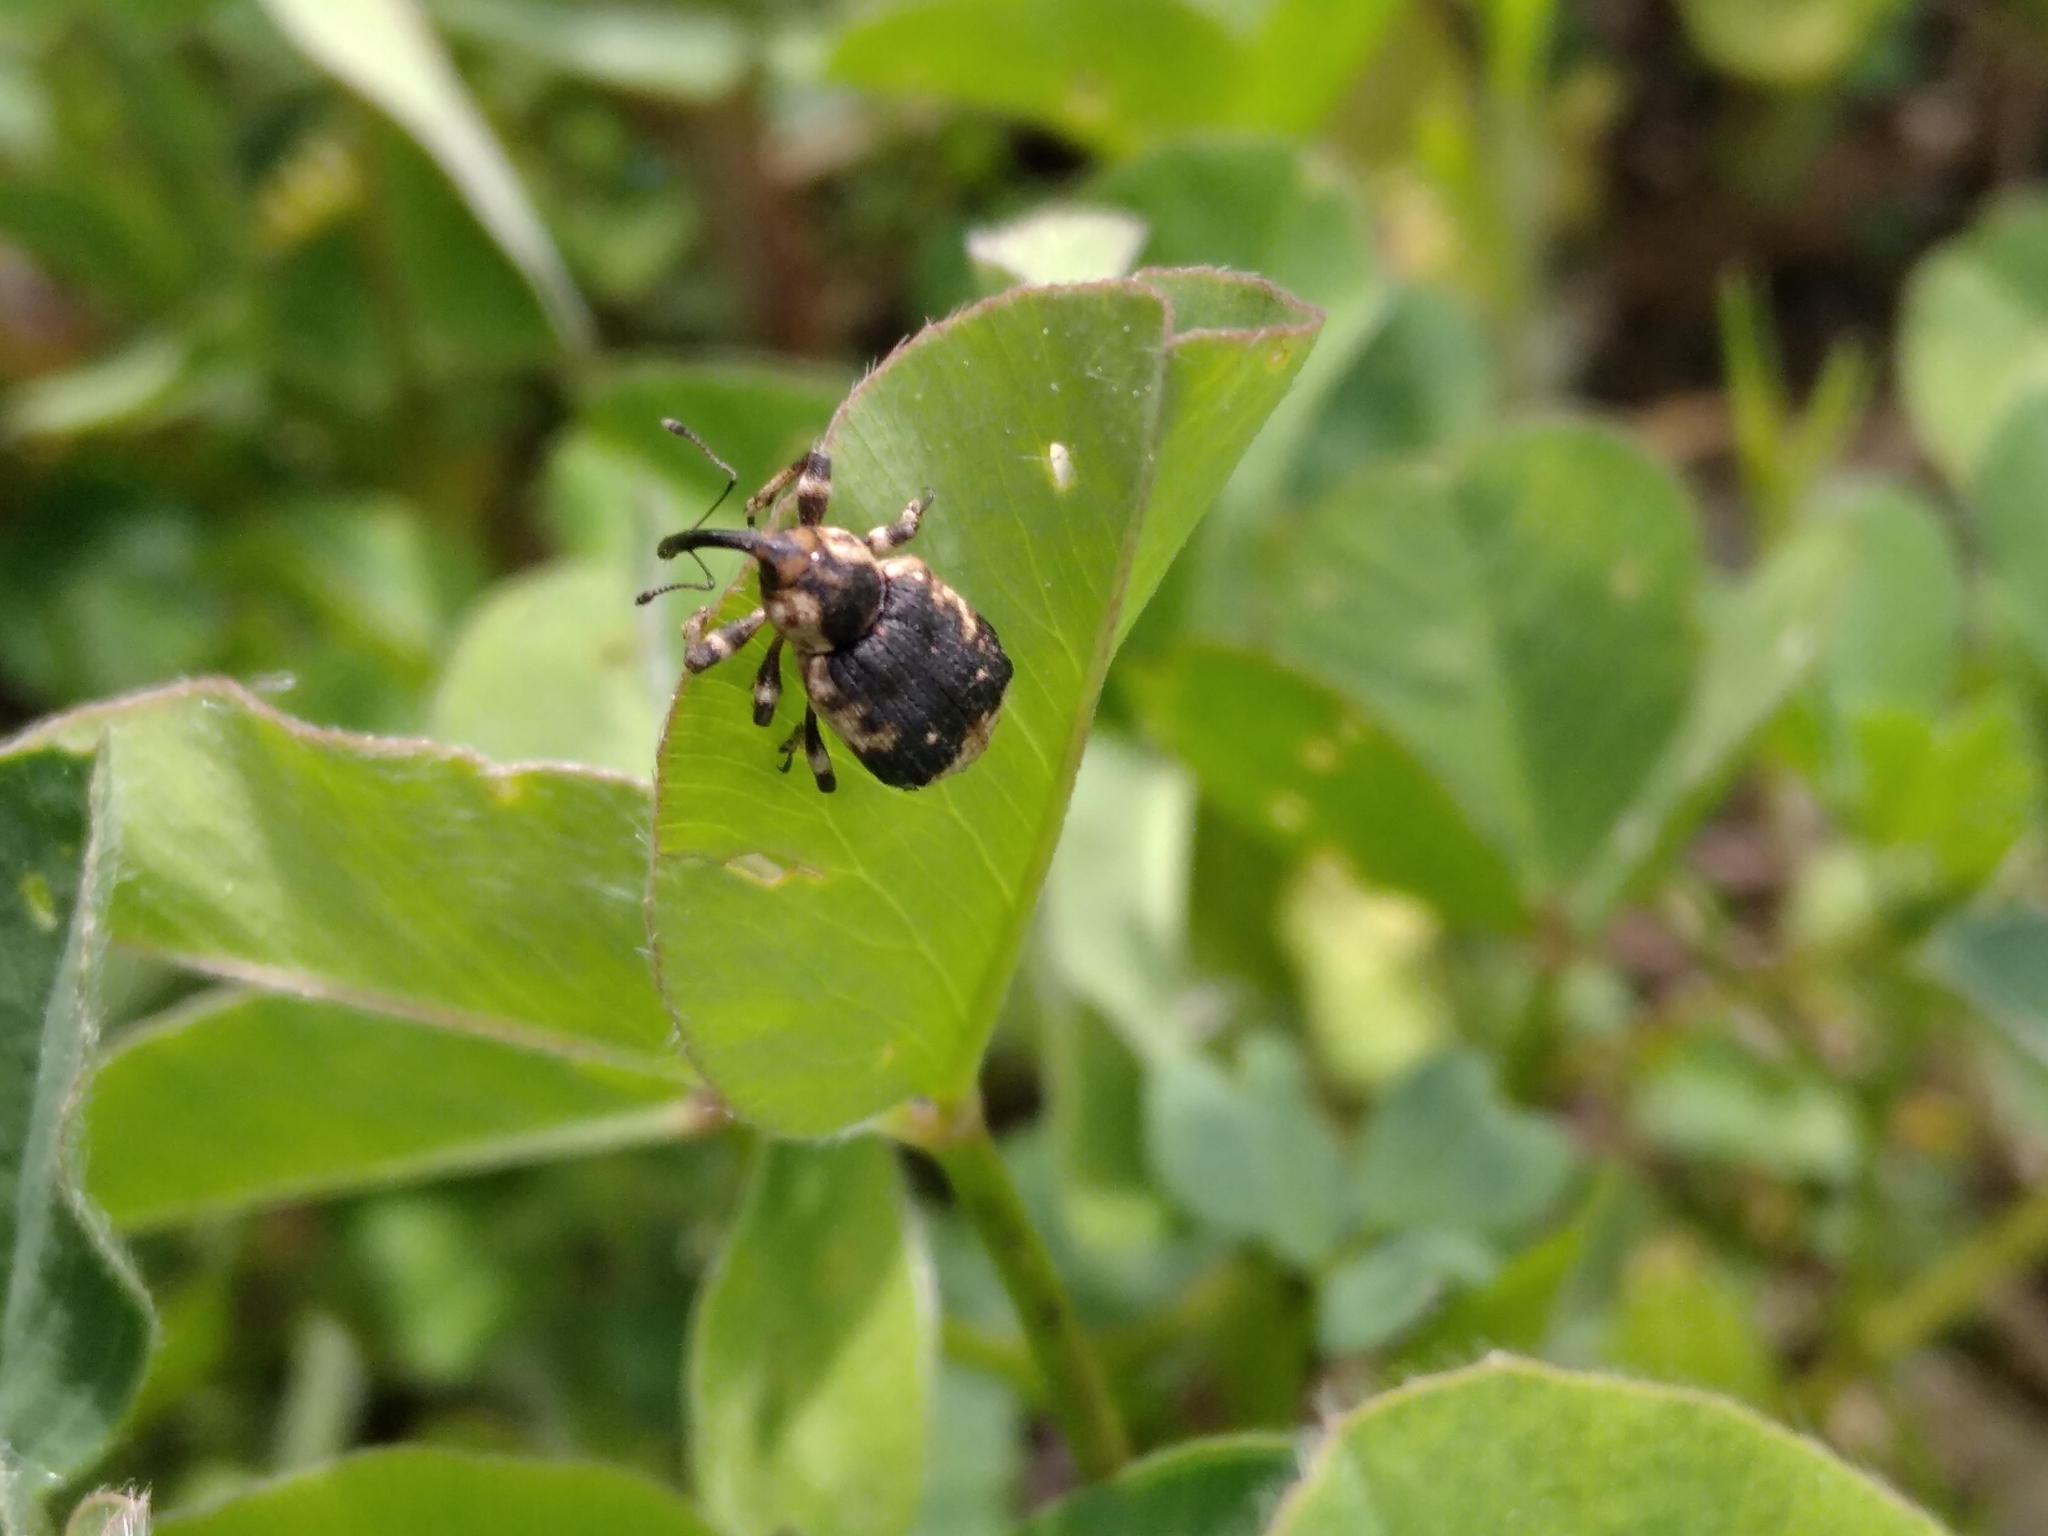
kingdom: Animalia
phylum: Arthropoda
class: Insecta
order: Coleoptera
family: Brachyceridae
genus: Grypus
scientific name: Grypus equiseti
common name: Horsetail weevil
